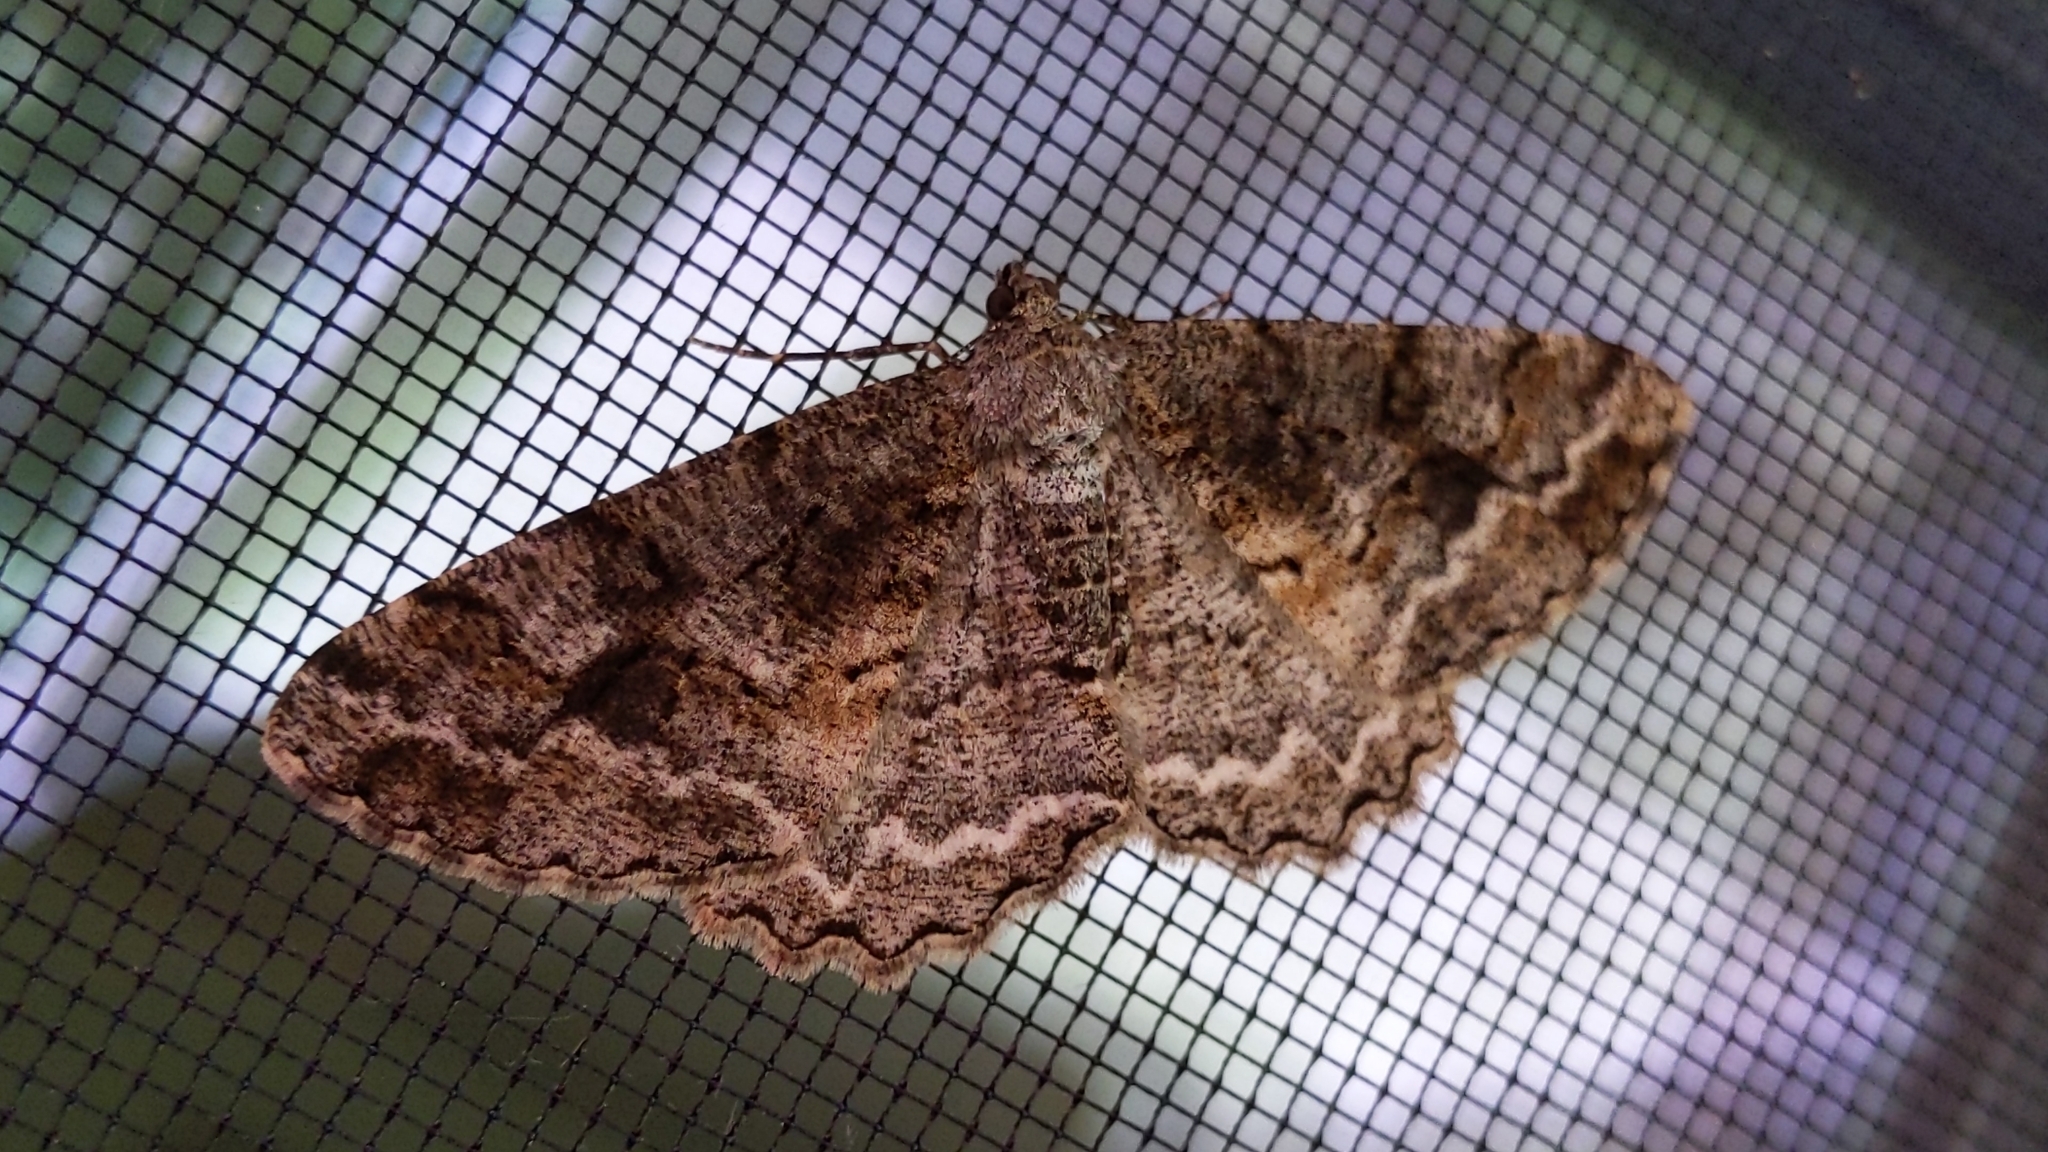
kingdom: Animalia
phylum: Arthropoda
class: Insecta
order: Lepidoptera
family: Geometridae
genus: Alcis
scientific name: Alcis repandata
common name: Mottled beauty
